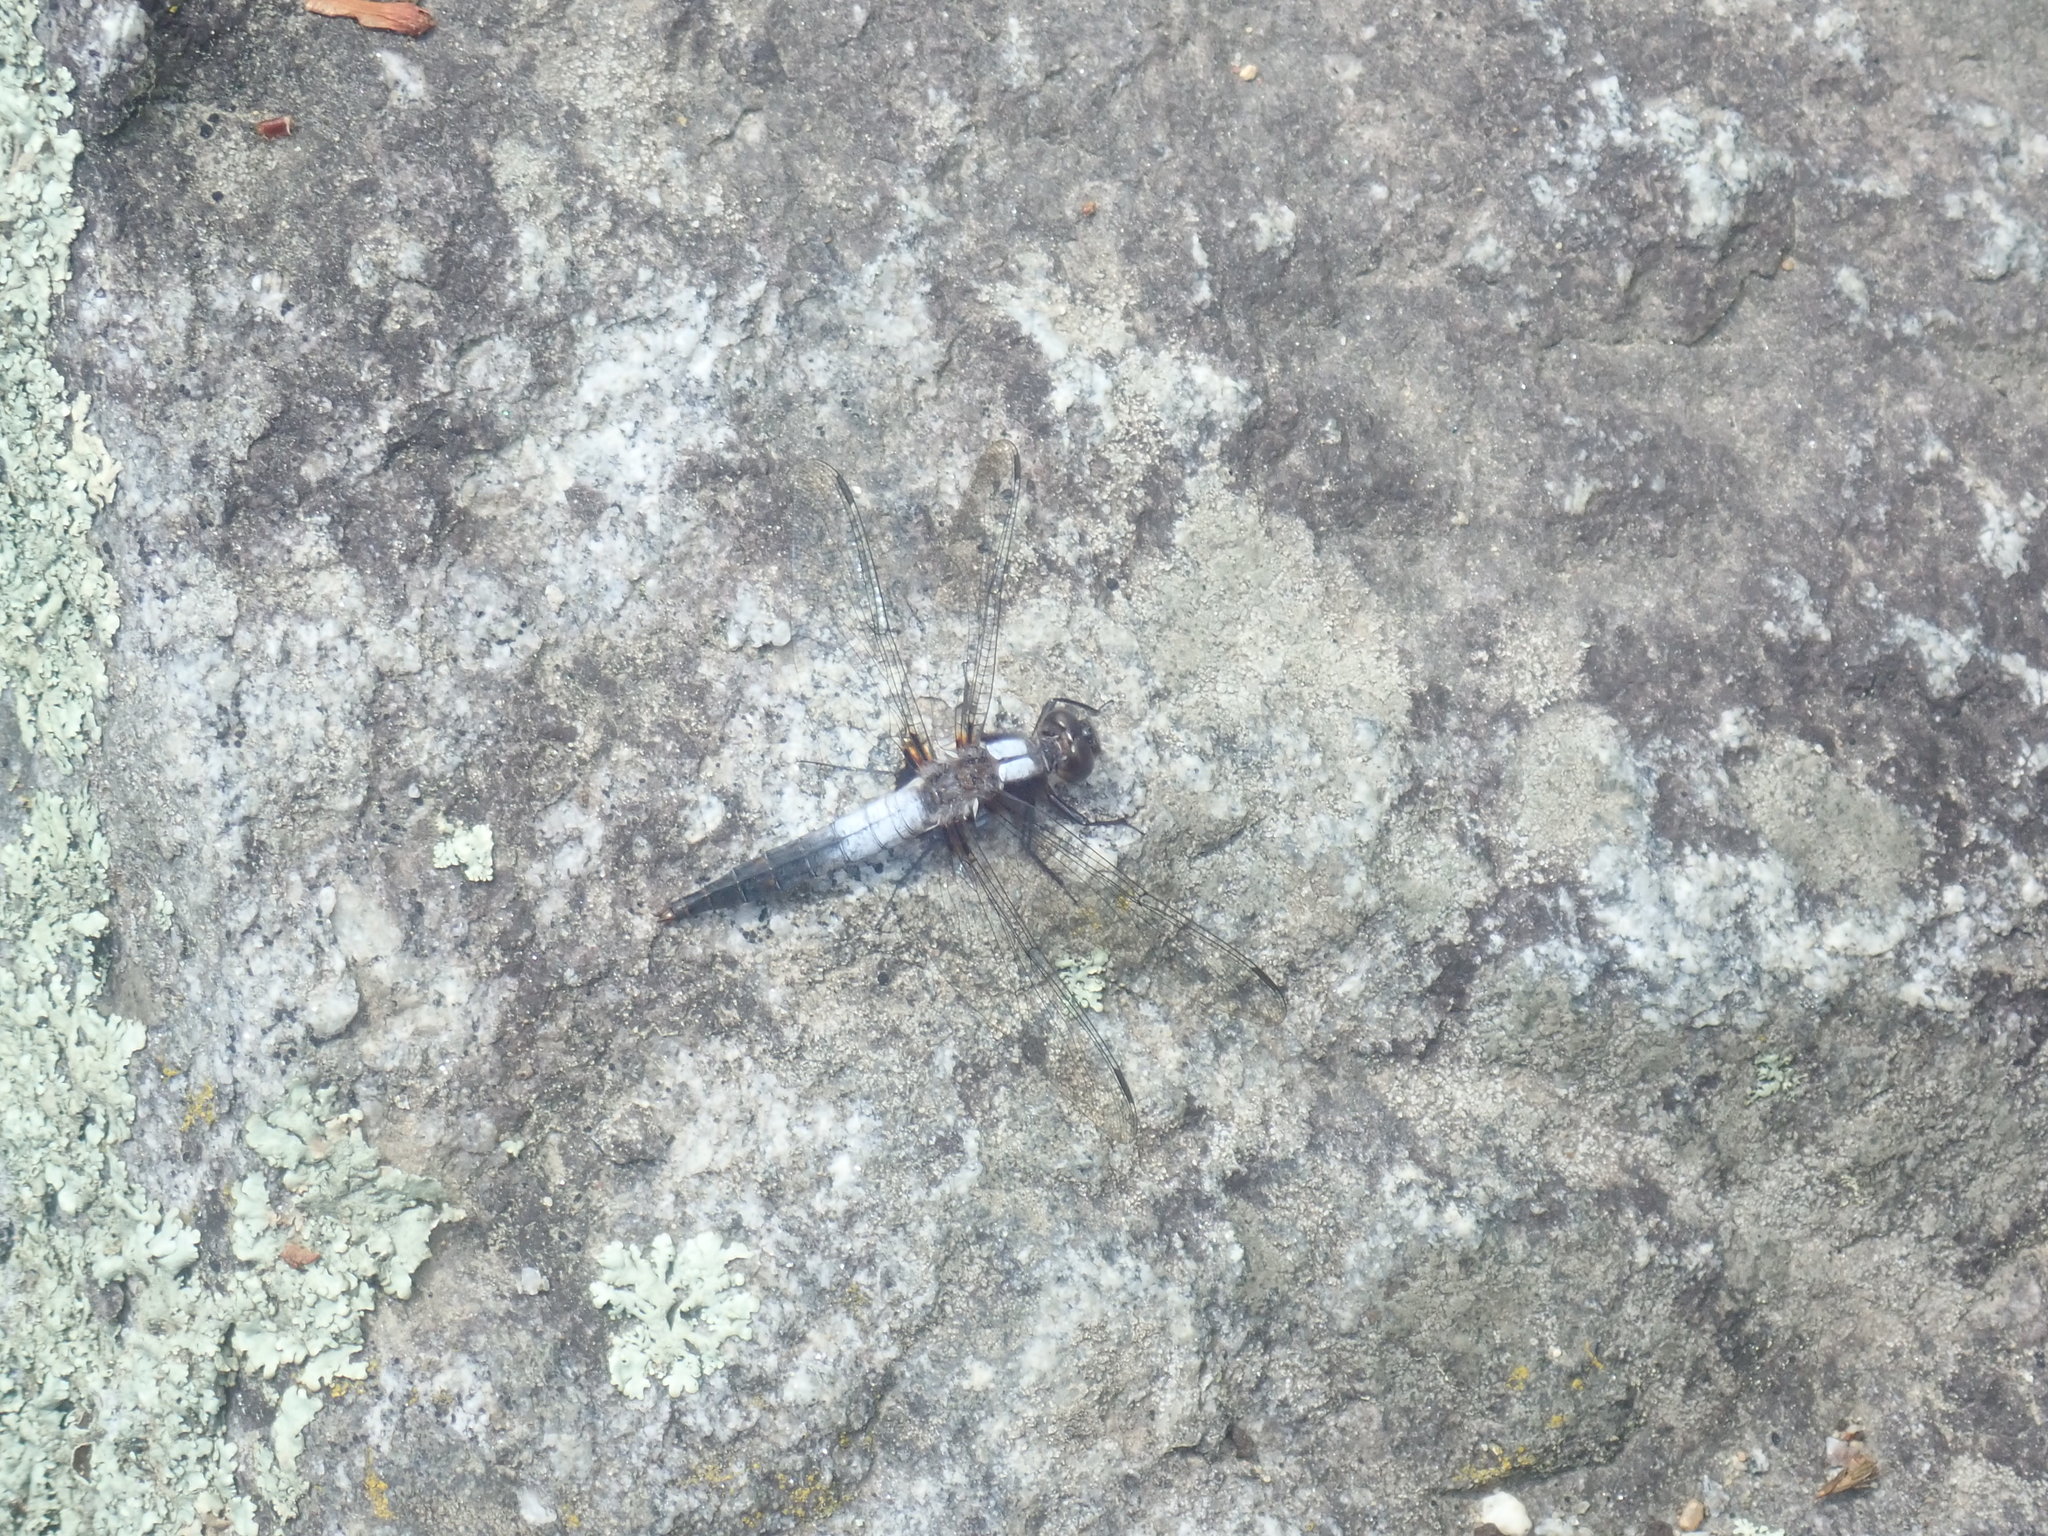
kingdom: Animalia
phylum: Arthropoda
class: Insecta
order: Odonata
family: Libellulidae
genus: Ladona
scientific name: Ladona julia
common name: Chalk-fronted corporal
